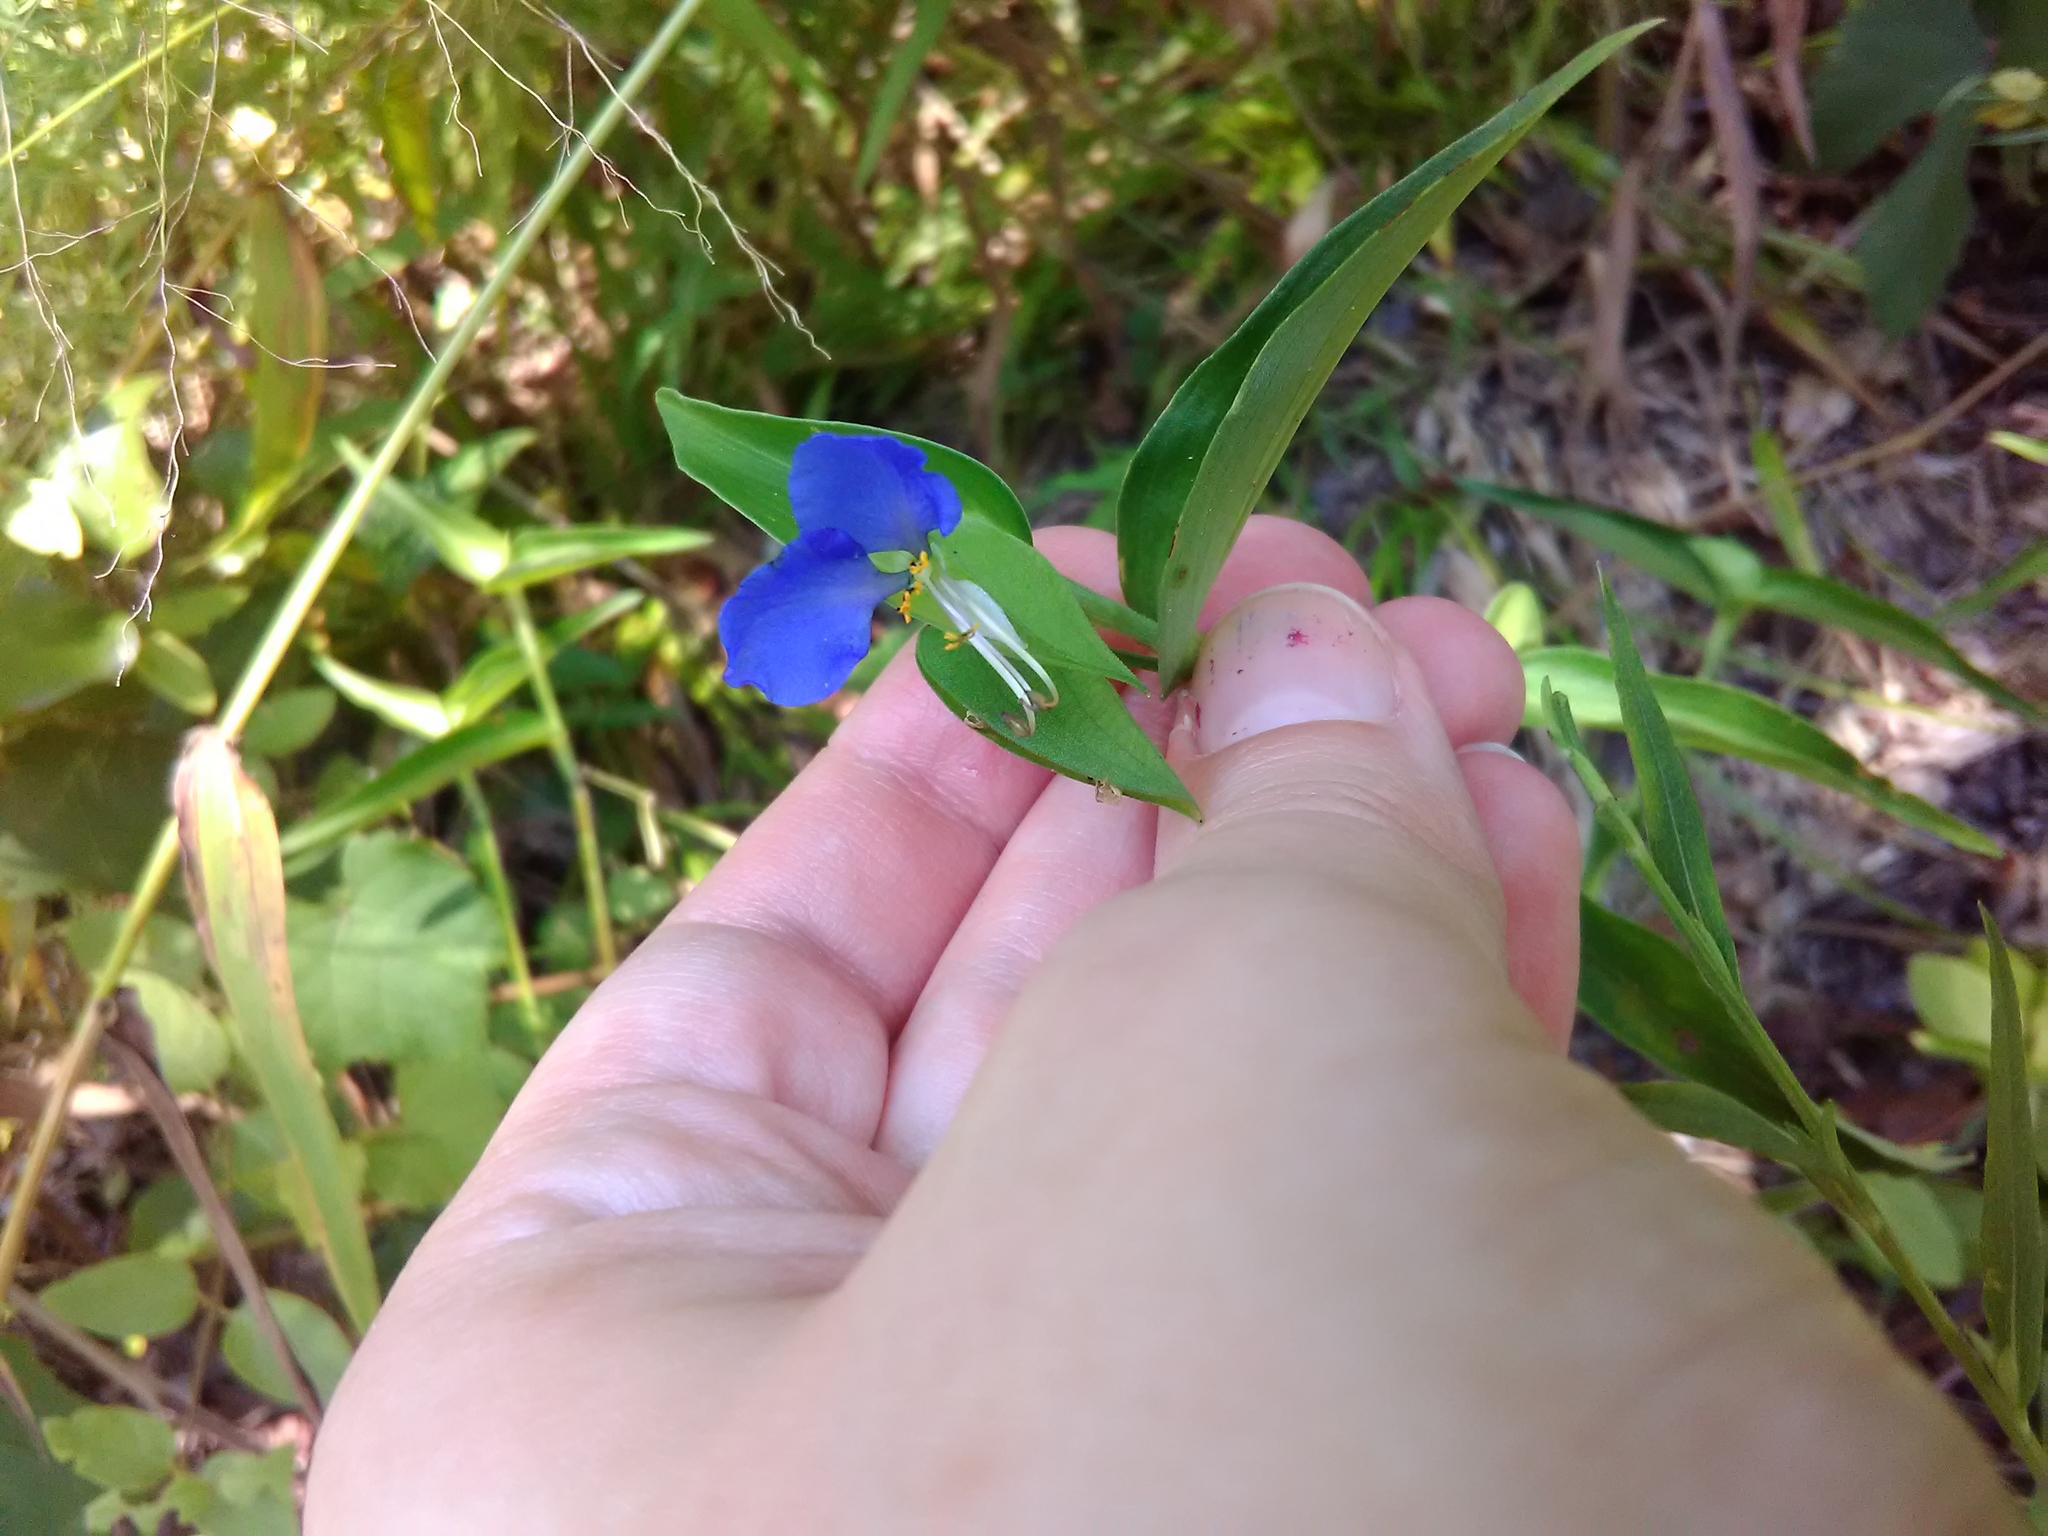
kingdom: Plantae
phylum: Tracheophyta
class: Liliopsida
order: Commelinales
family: Commelinaceae
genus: Commelina
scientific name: Commelina communis
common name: Asiatic dayflower
